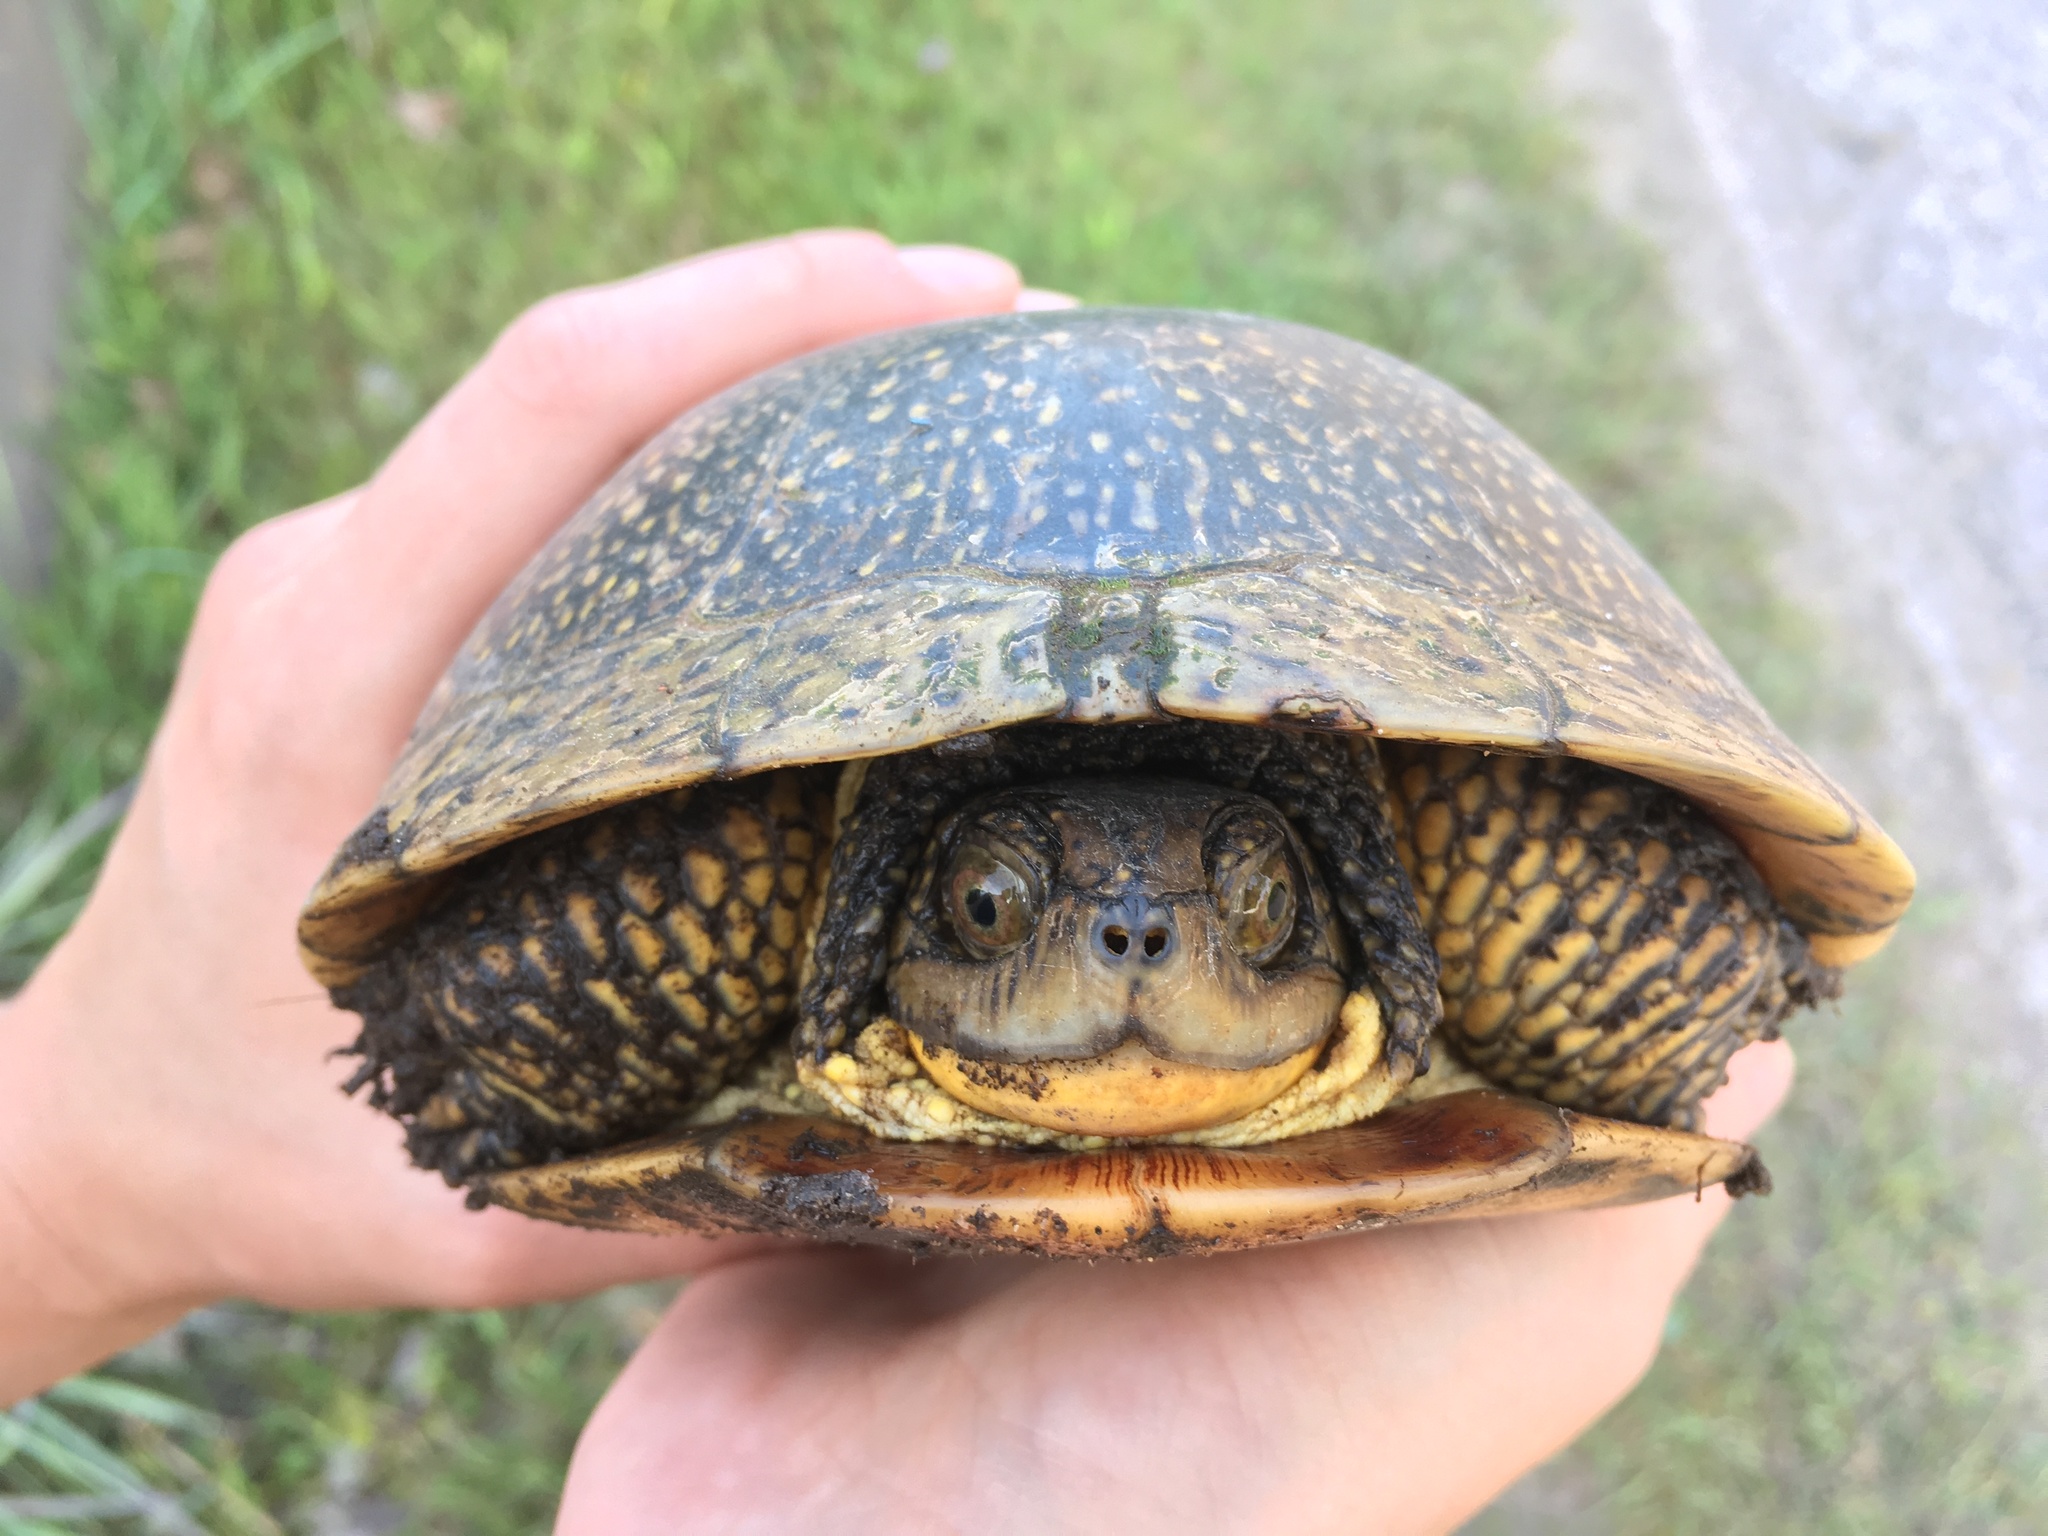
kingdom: Animalia
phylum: Chordata
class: Testudines
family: Emydidae
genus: Emys
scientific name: Emys blandingii
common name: Blanding's turtle
